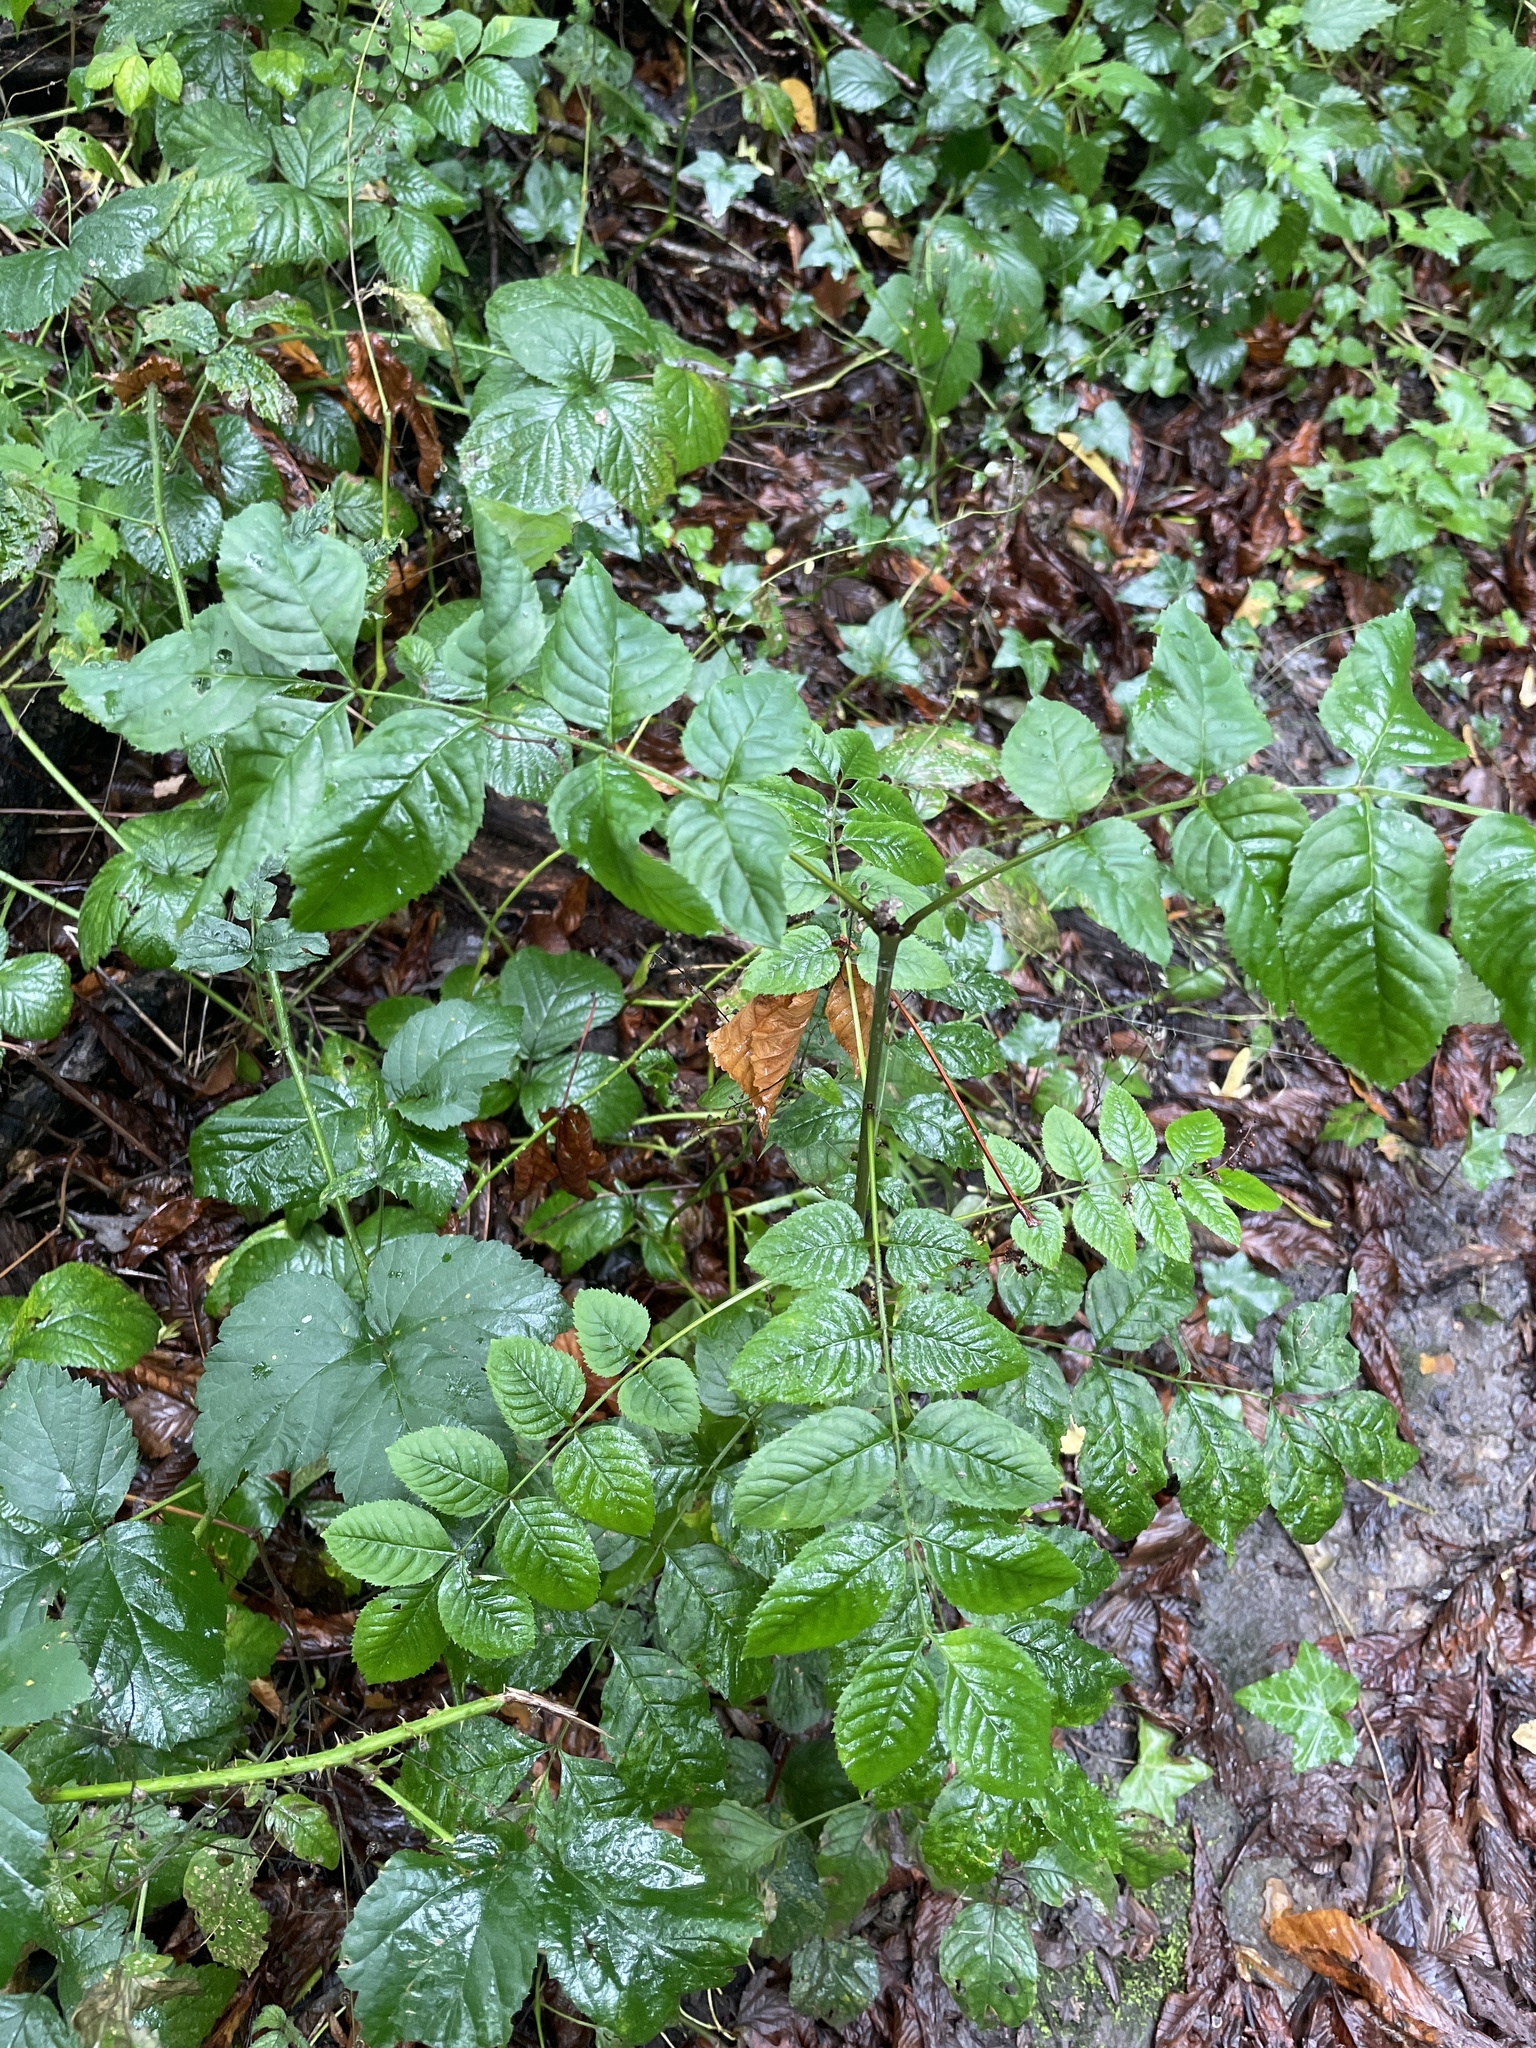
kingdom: Plantae
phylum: Tracheophyta
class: Magnoliopsida
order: Lamiales
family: Oleaceae
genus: Fraxinus
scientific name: Fraxinus excelsior
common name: European ash
